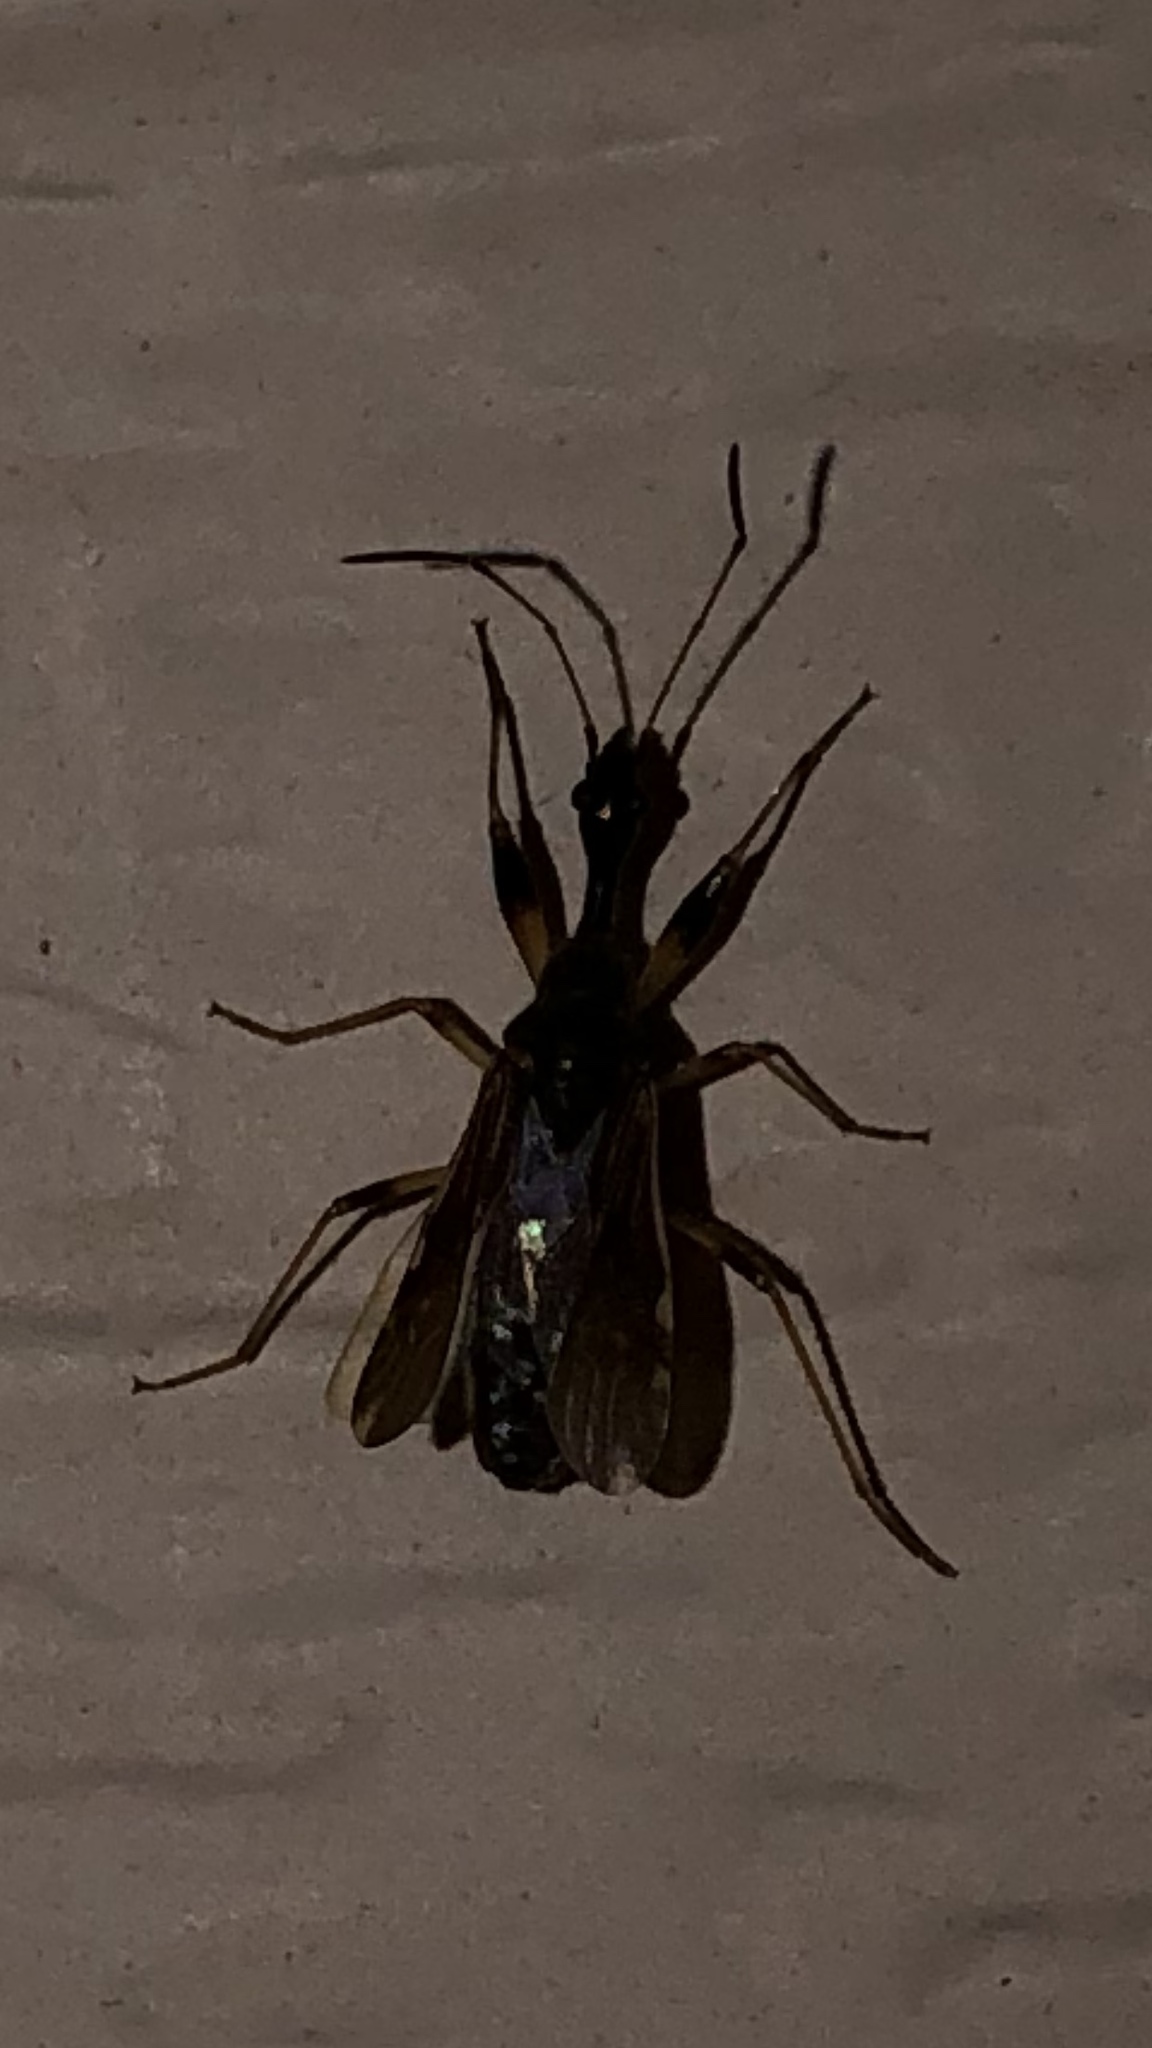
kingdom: Animalia
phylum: Arthropoda
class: Insecta
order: Hemiptera
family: Rhyparochromidae
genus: Myodocha
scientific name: Myodocha serripes
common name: Long-necked seed bug
